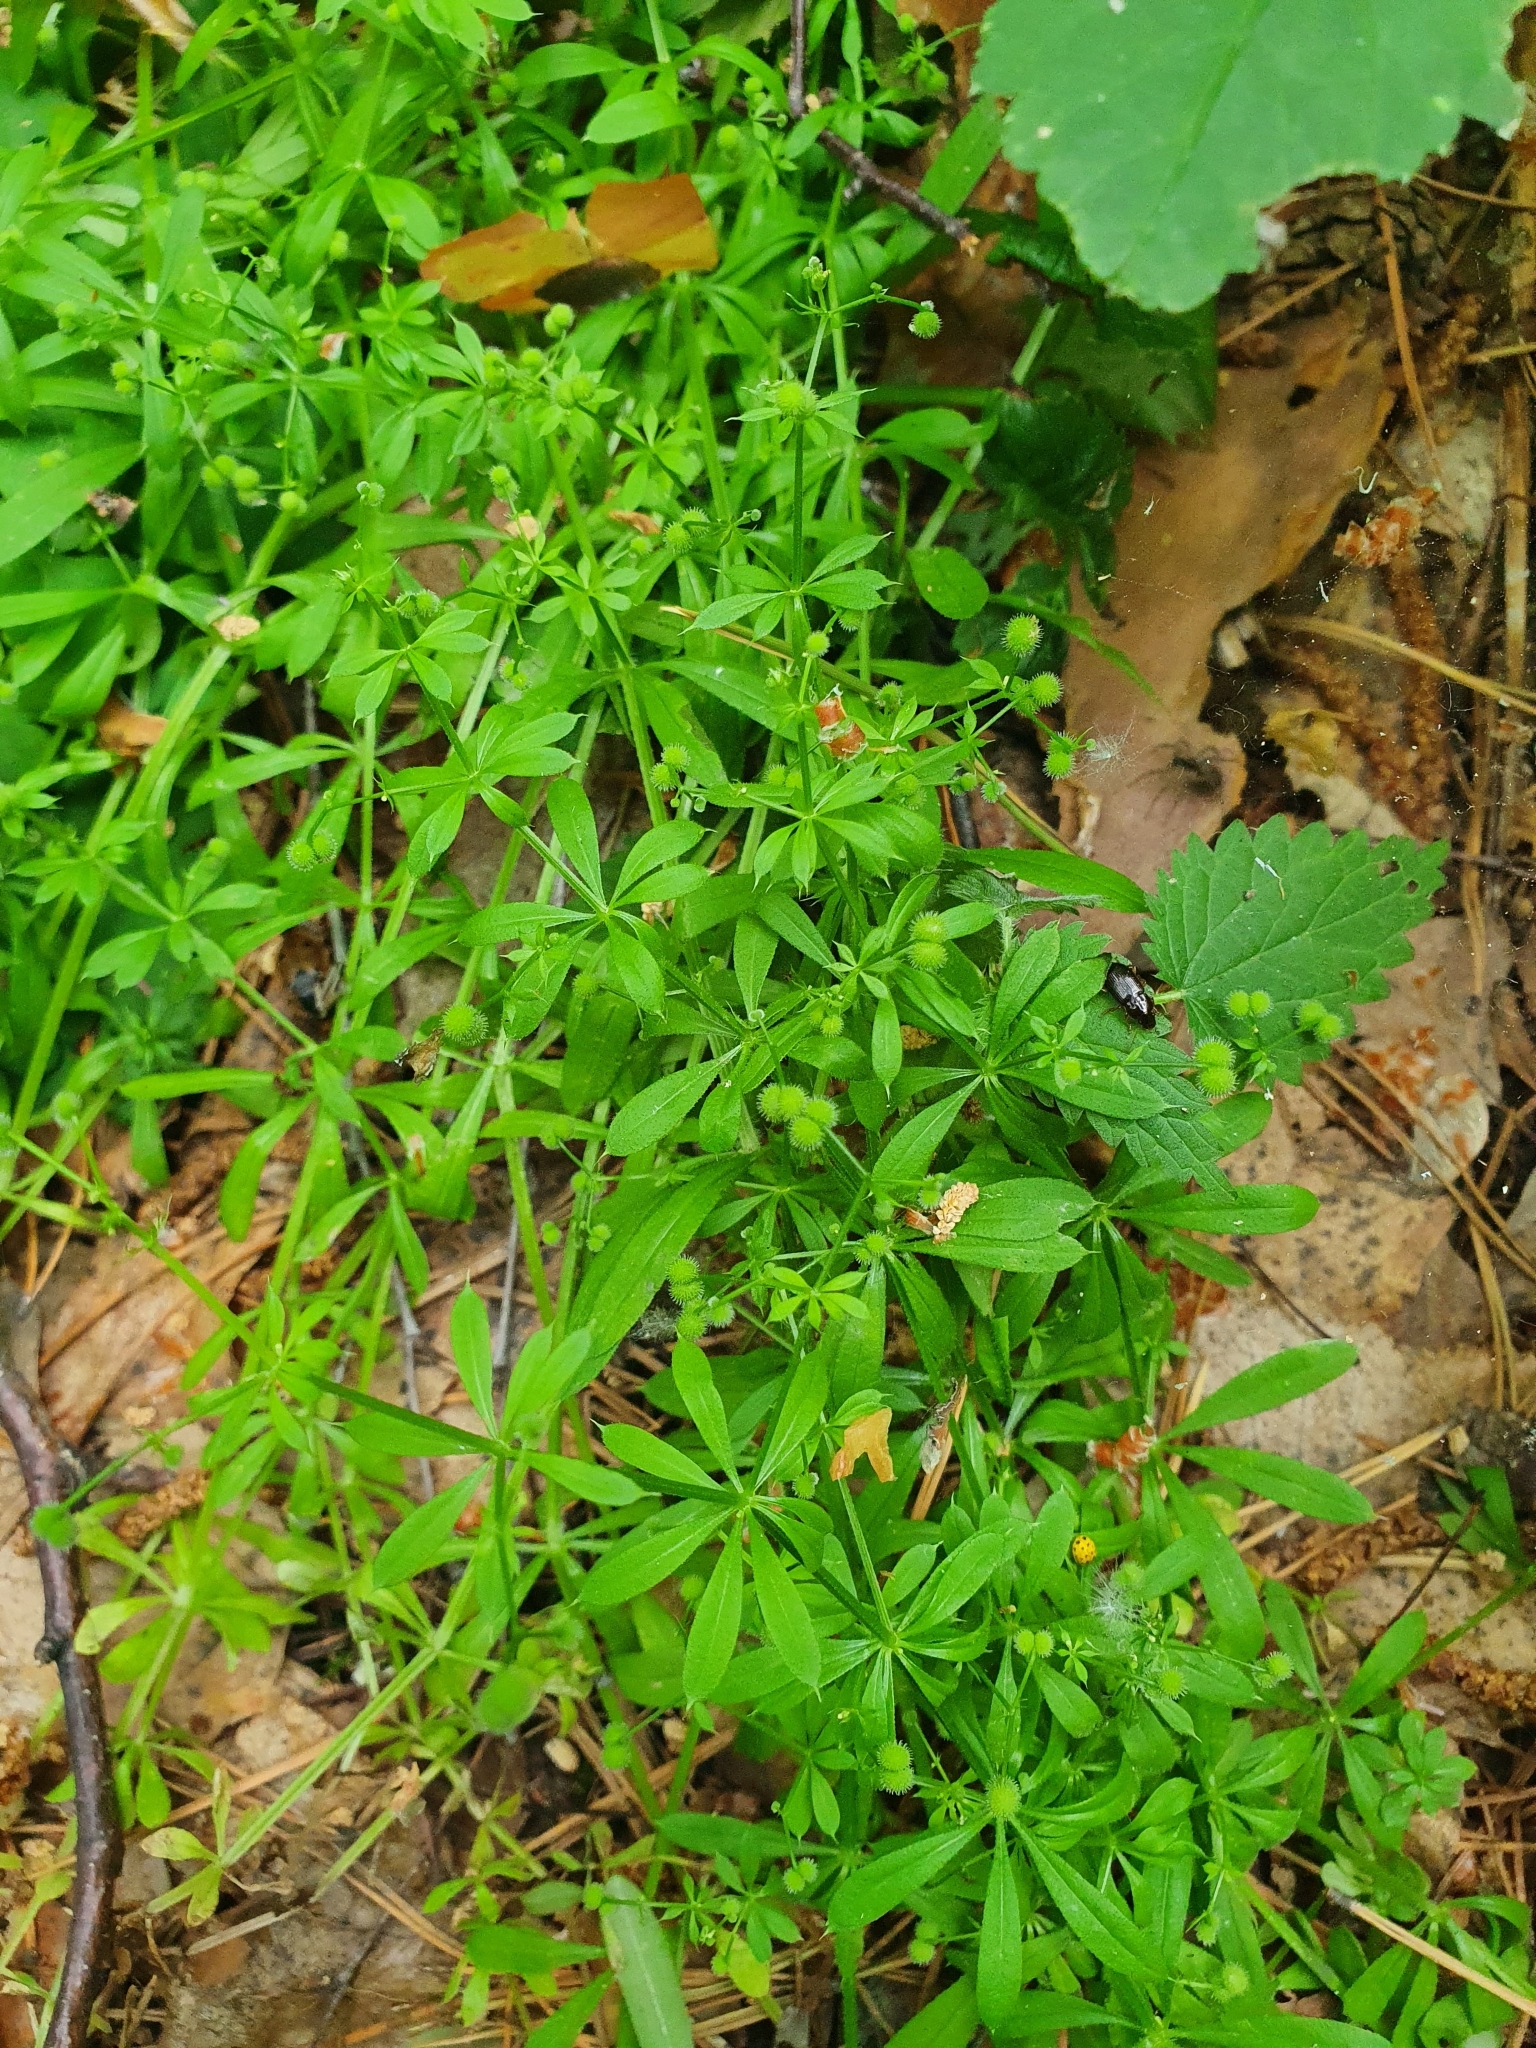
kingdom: Plantae
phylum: Tracheophyta
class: Magnoliopsida
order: Gentianales
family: Rubiaceae
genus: Galium
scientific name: Galium aparine
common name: Cleavers
